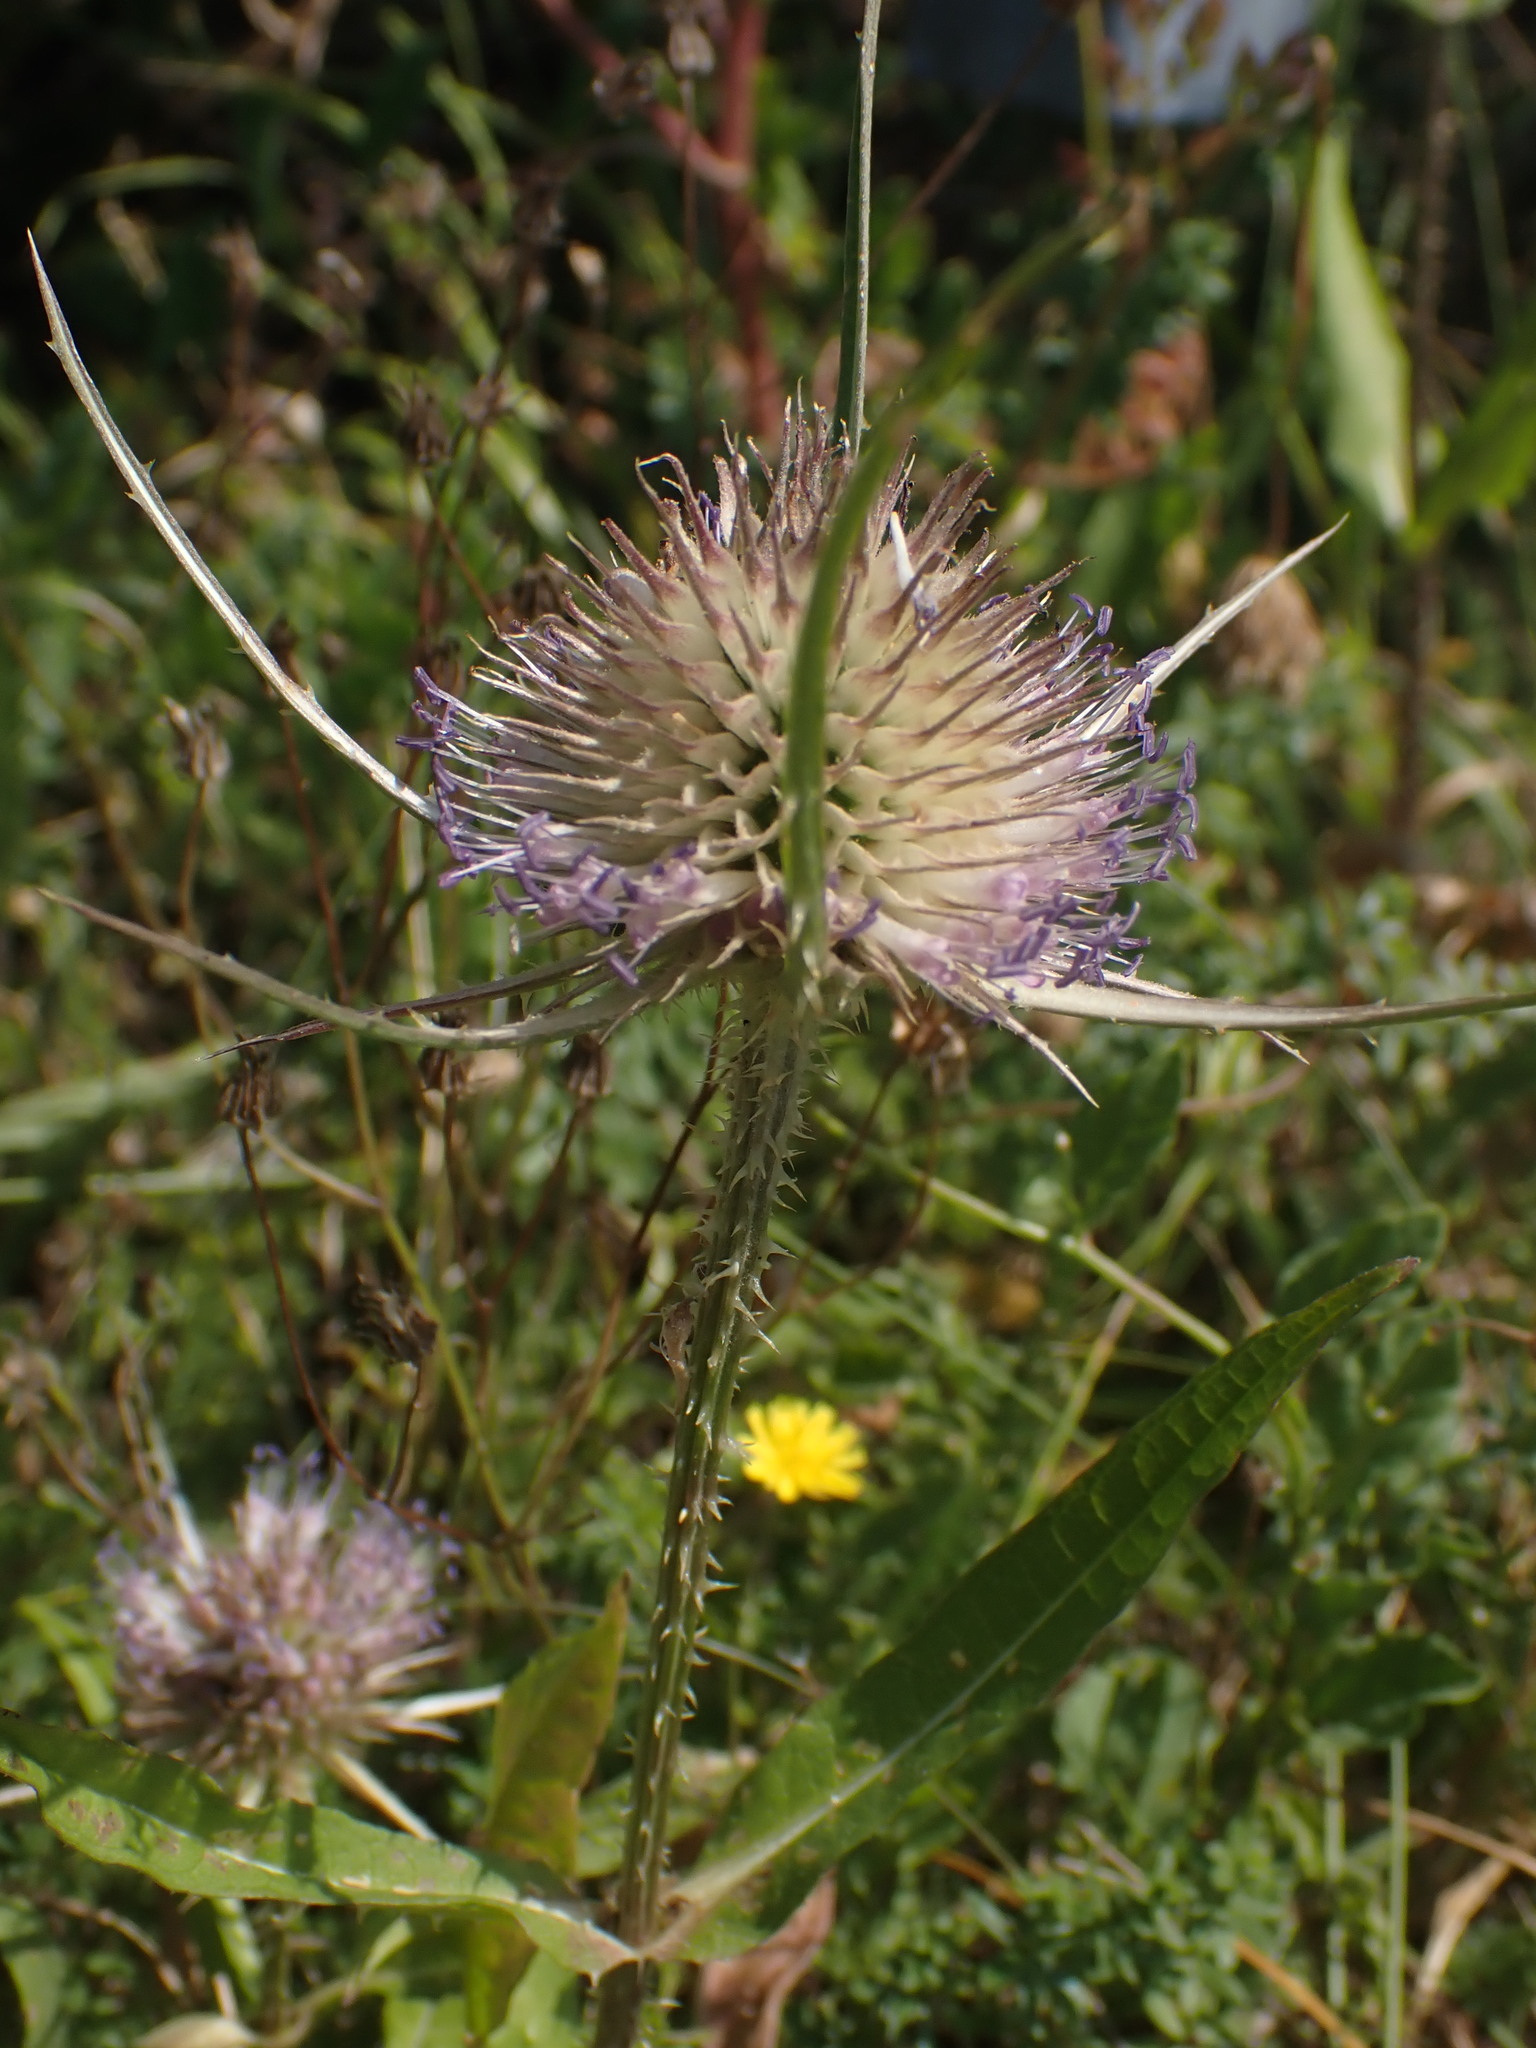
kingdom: Plantae
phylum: Tracheophyta
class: Magnoliopsida
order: Dipsacales
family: Caprifoliaceae
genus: Dipsacus
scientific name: Dipsacus fullonum
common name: Teasel
